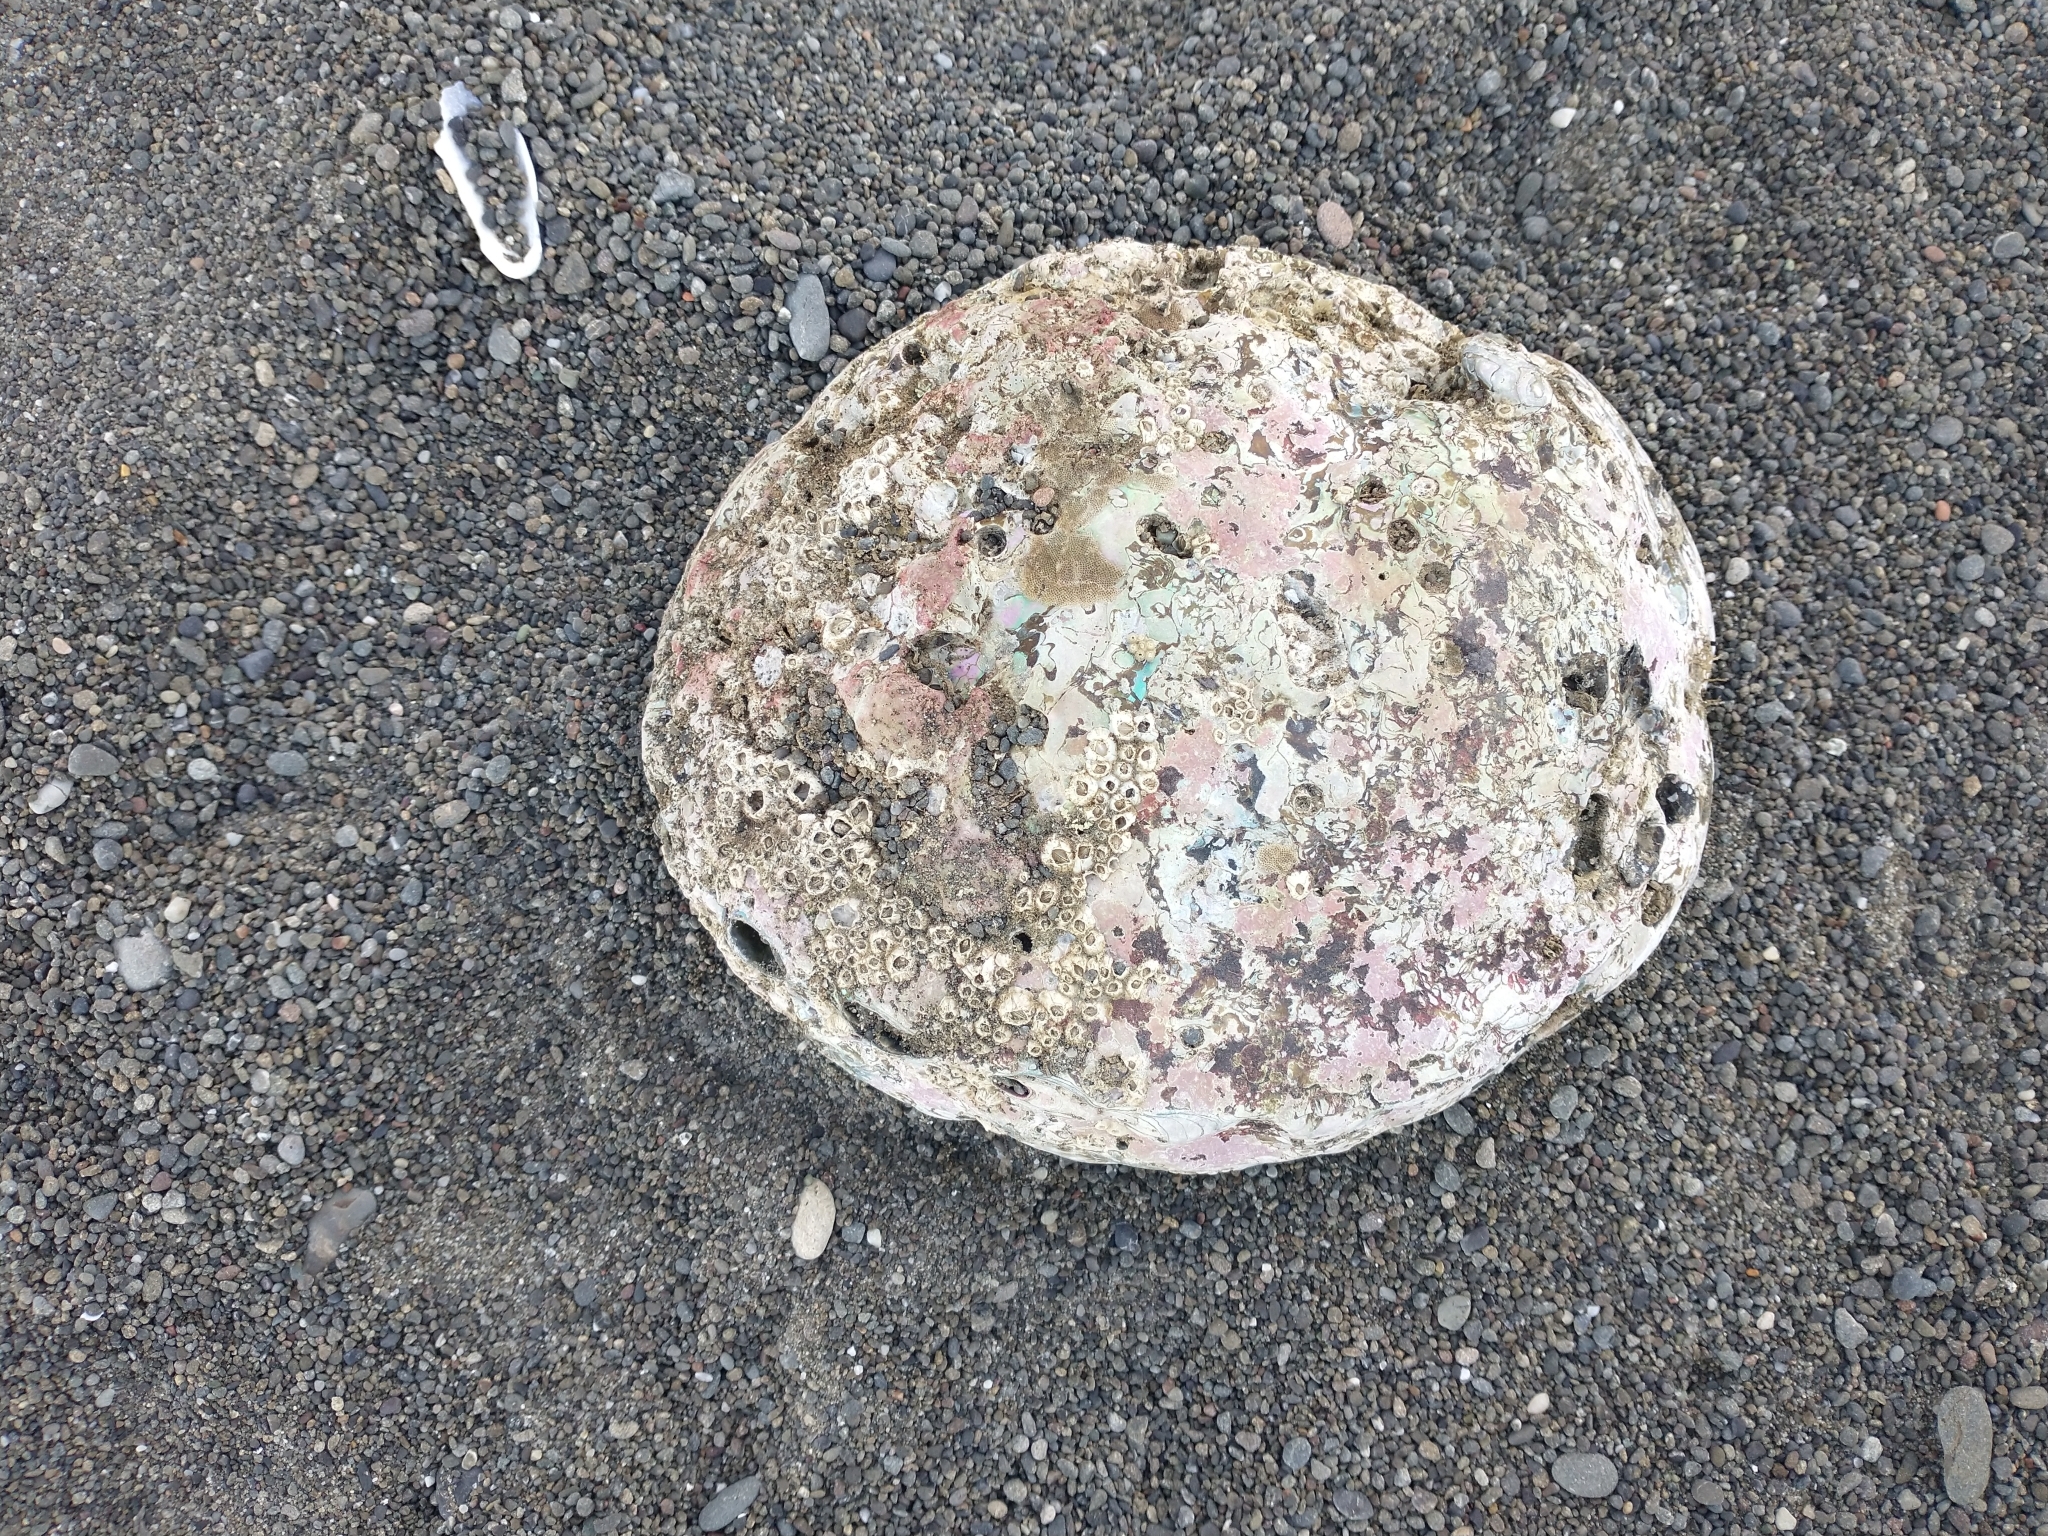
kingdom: Animalia
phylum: Mollusca
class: Gastropoda
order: Lepetellida
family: Haliotidae
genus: Haliotis
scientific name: Haliotis rufescens
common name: Red abalone
